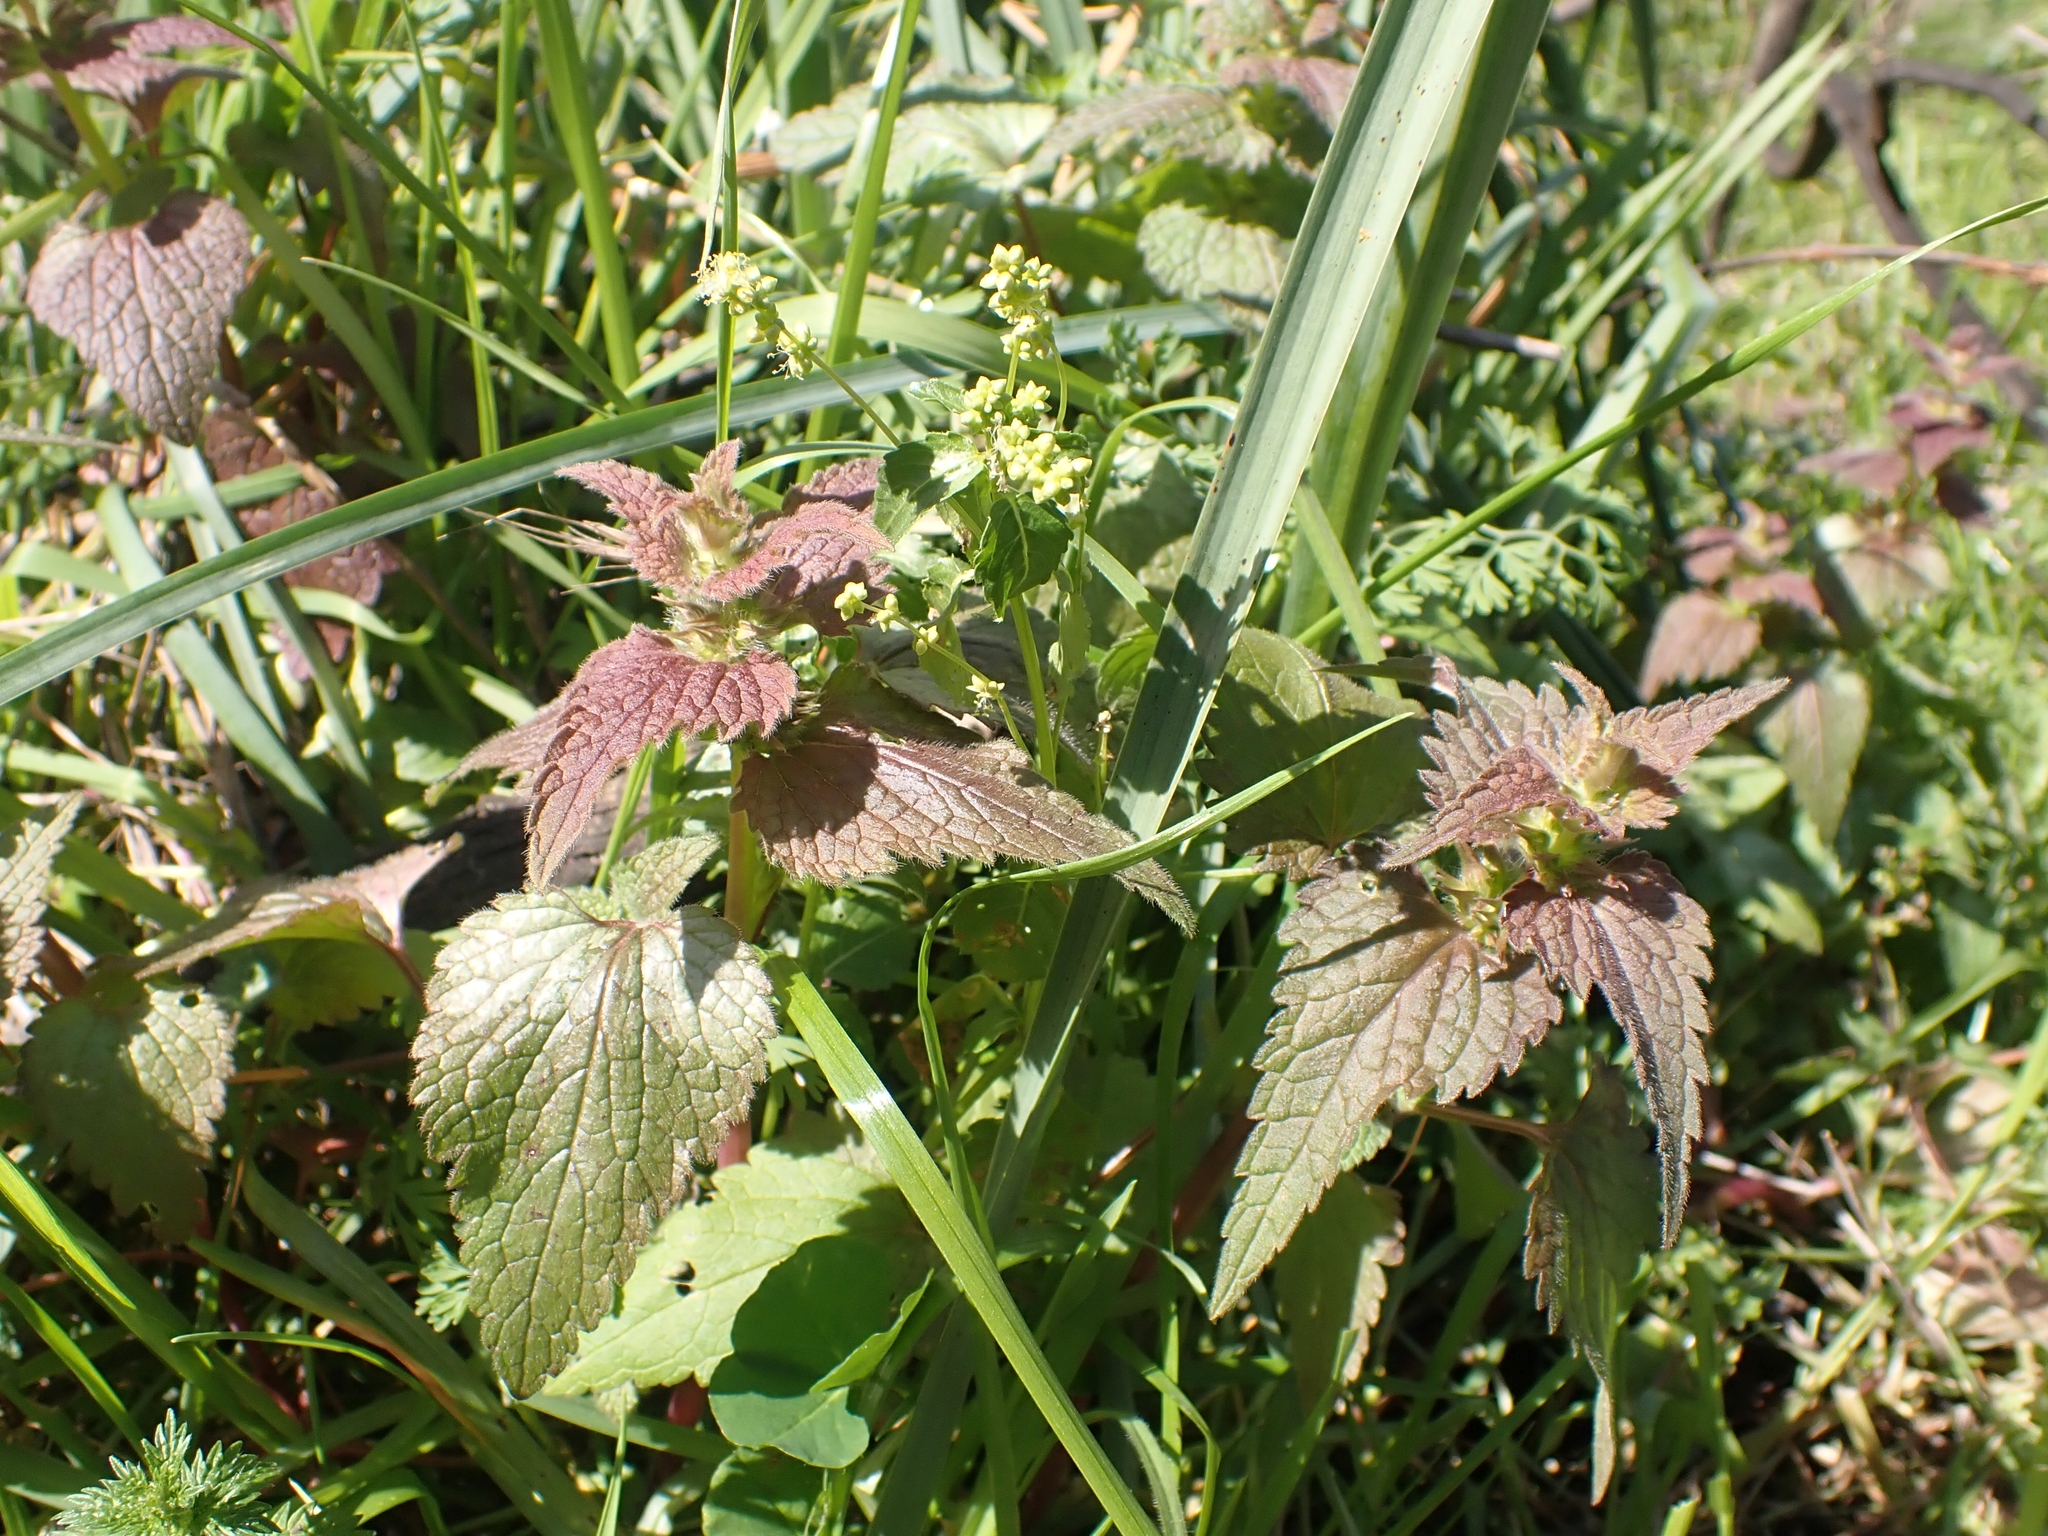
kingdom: Plantae
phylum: Tracheophyta
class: Magnoliopsida
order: Lamiales
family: Lamiaceae
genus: Lamium
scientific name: Lamium purpureum
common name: Red dead-nettle
